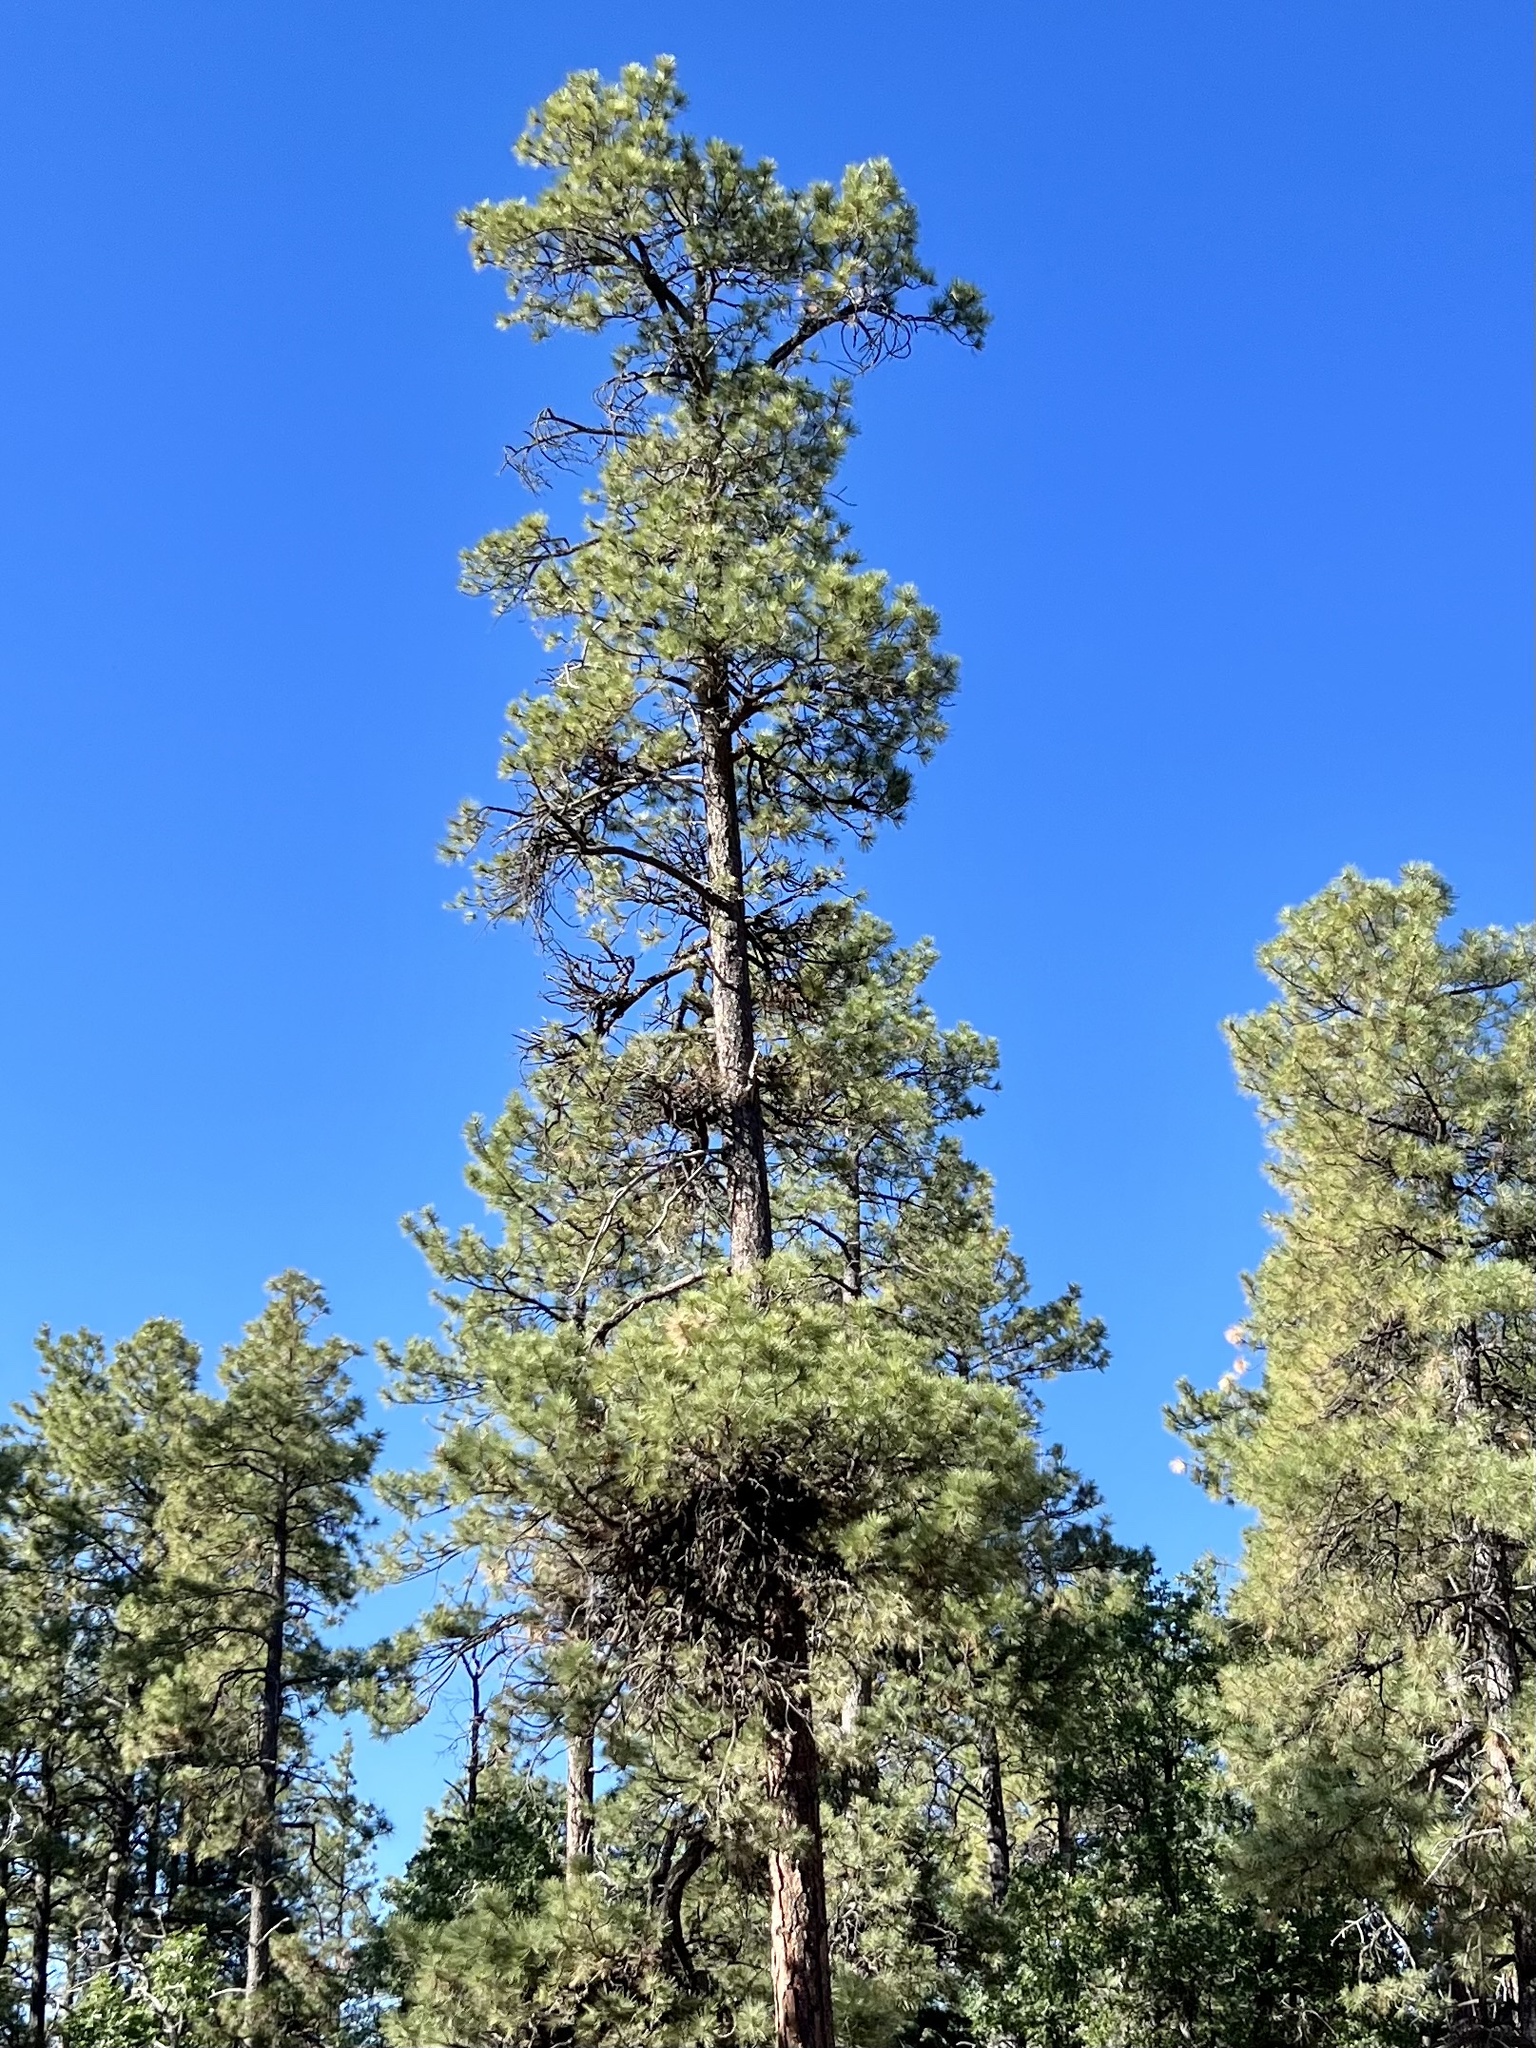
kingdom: Plantae
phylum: Tracheophyta
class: Pinopsida
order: Pinales
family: Pinaceae
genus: Pinus
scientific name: Pinus ponderosa
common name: Western yellow-pine
